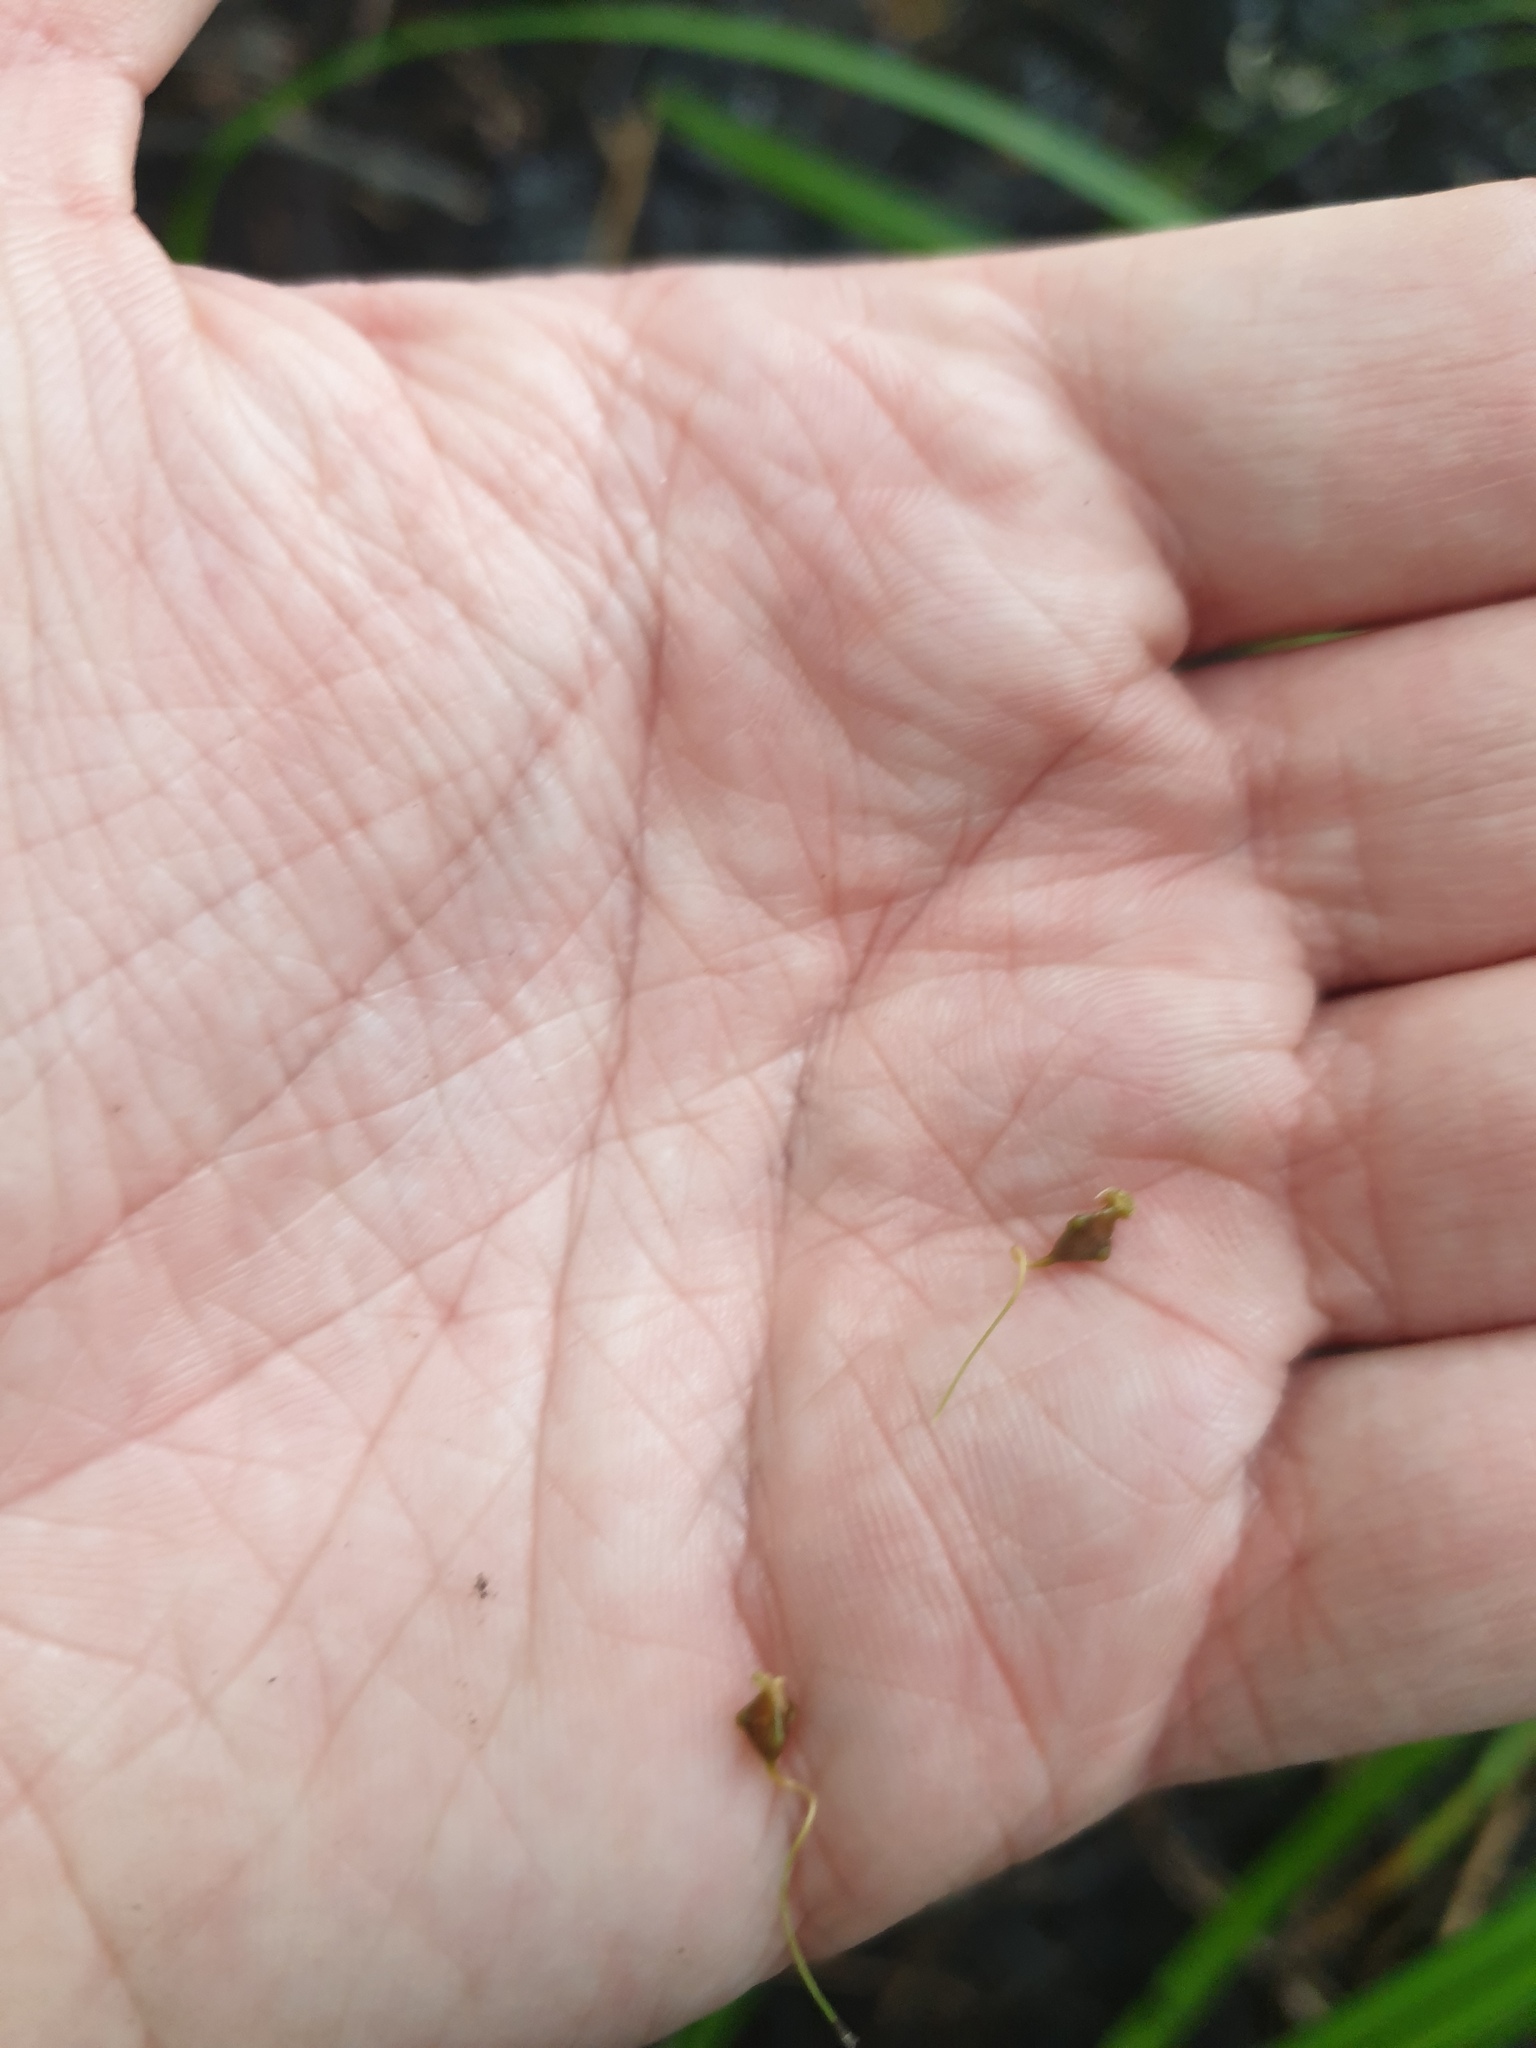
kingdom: Plantae
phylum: Tracheophyta
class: Liliopsida
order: Poales
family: Cyperaceae
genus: Carex
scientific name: Carex lupuliformis
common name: False hop sedge
